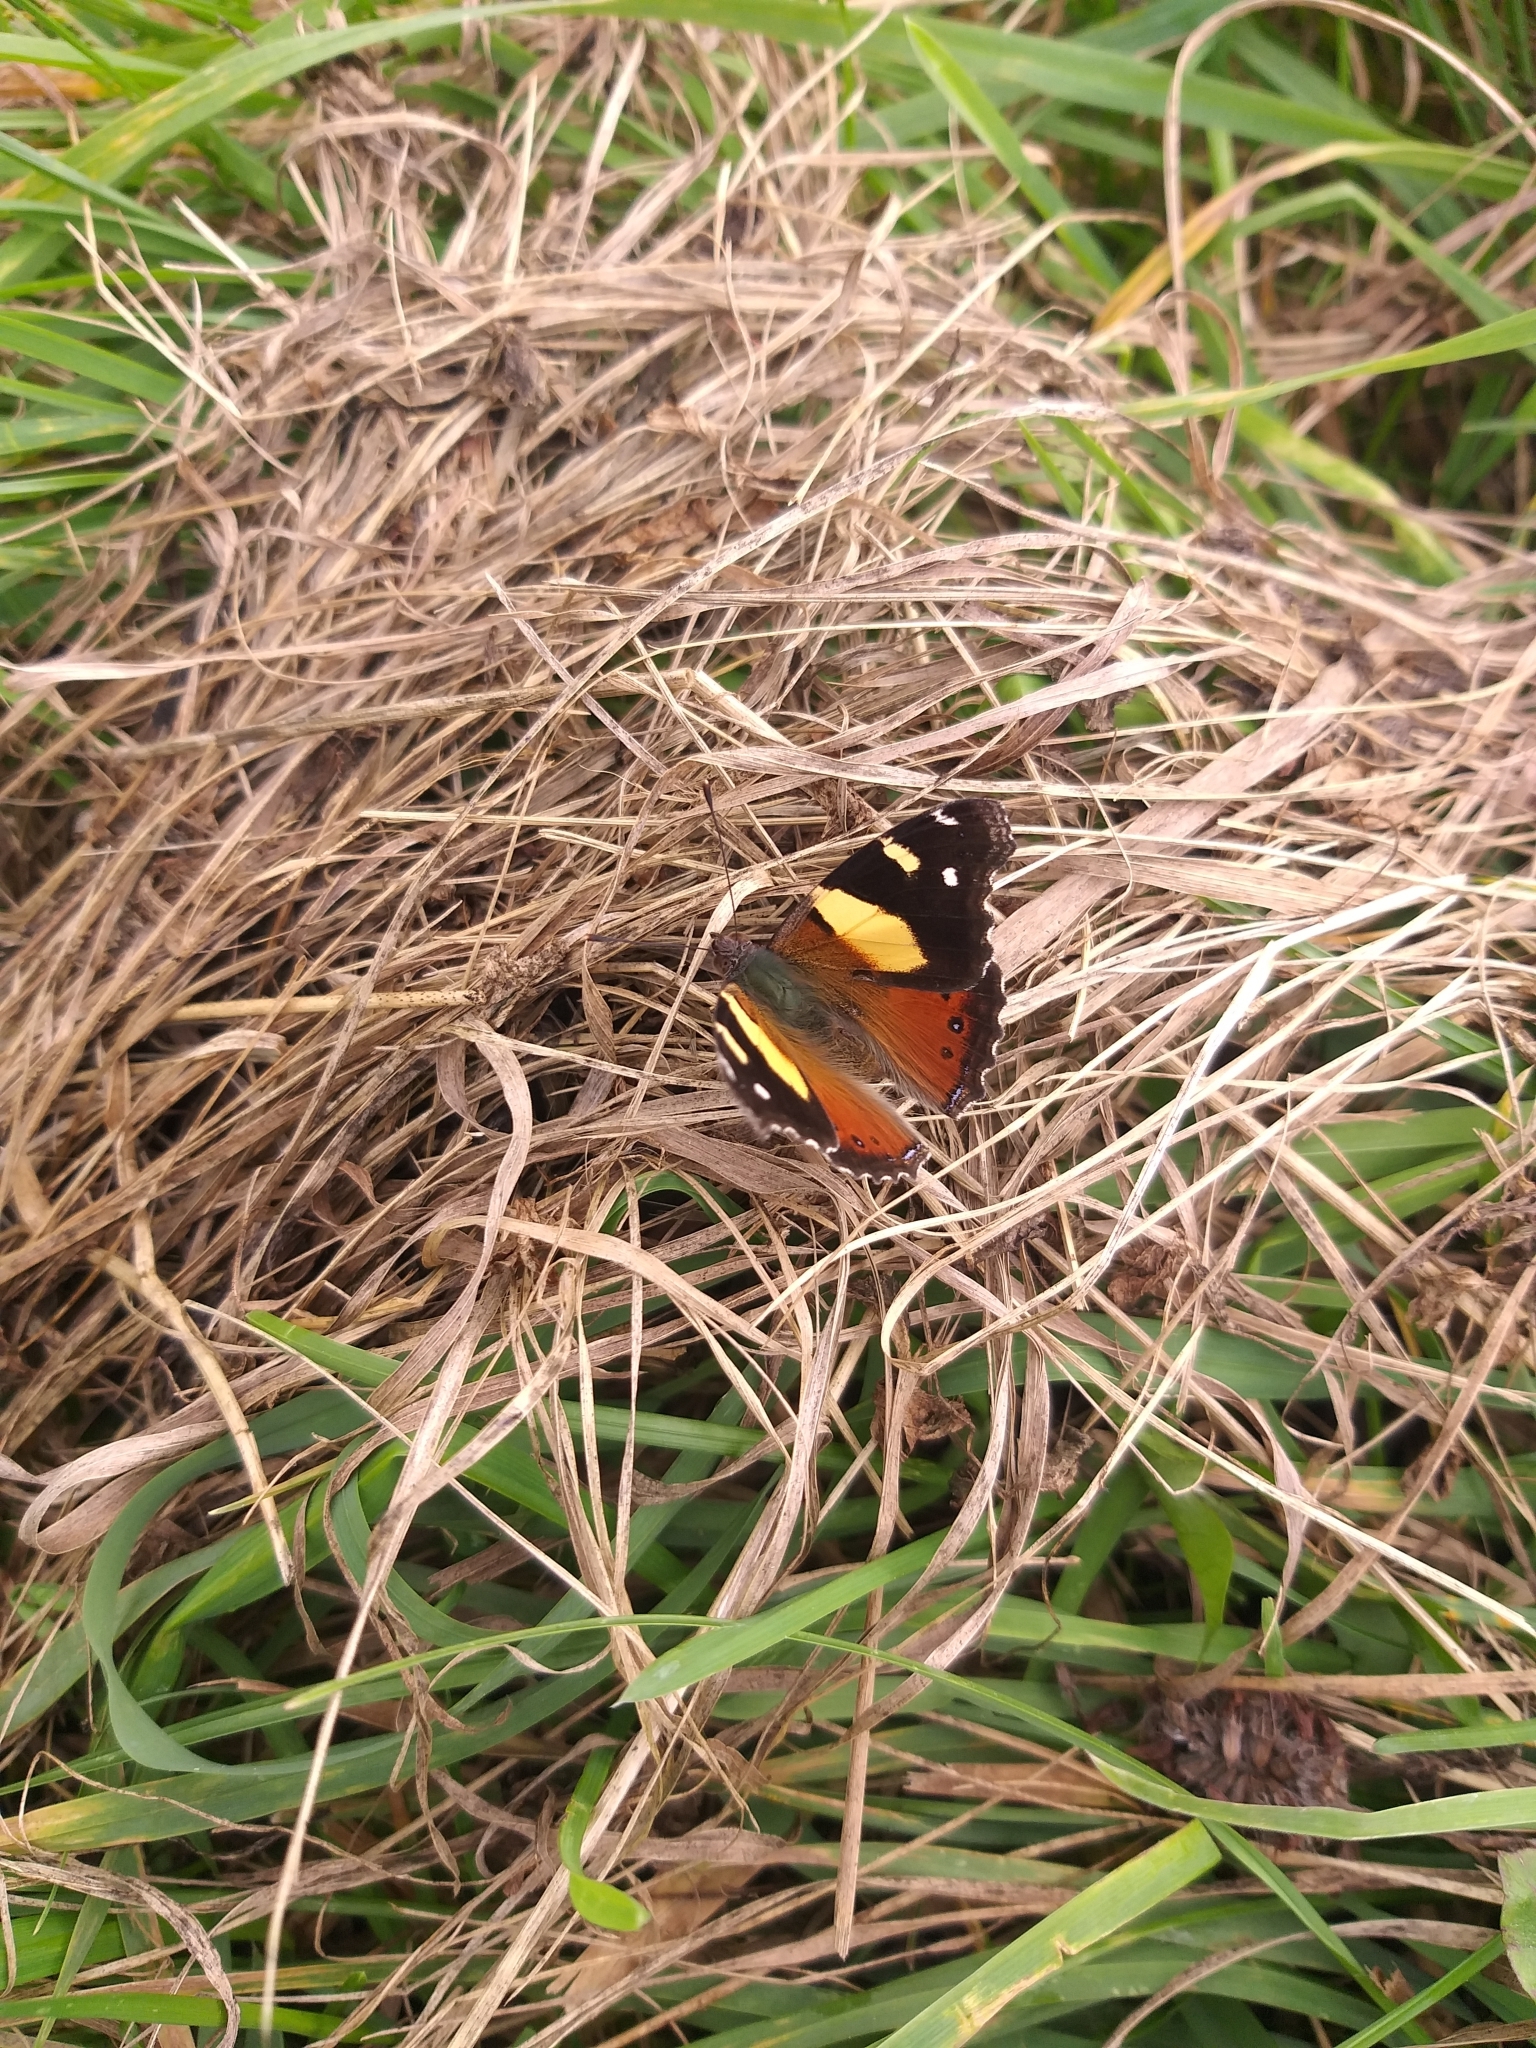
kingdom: Animalia
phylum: Arthropoda
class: Insecta
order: Lepidoptera
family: Nymphalidae
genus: Vanessa
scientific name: Vanessa itea
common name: Yellow admiral
